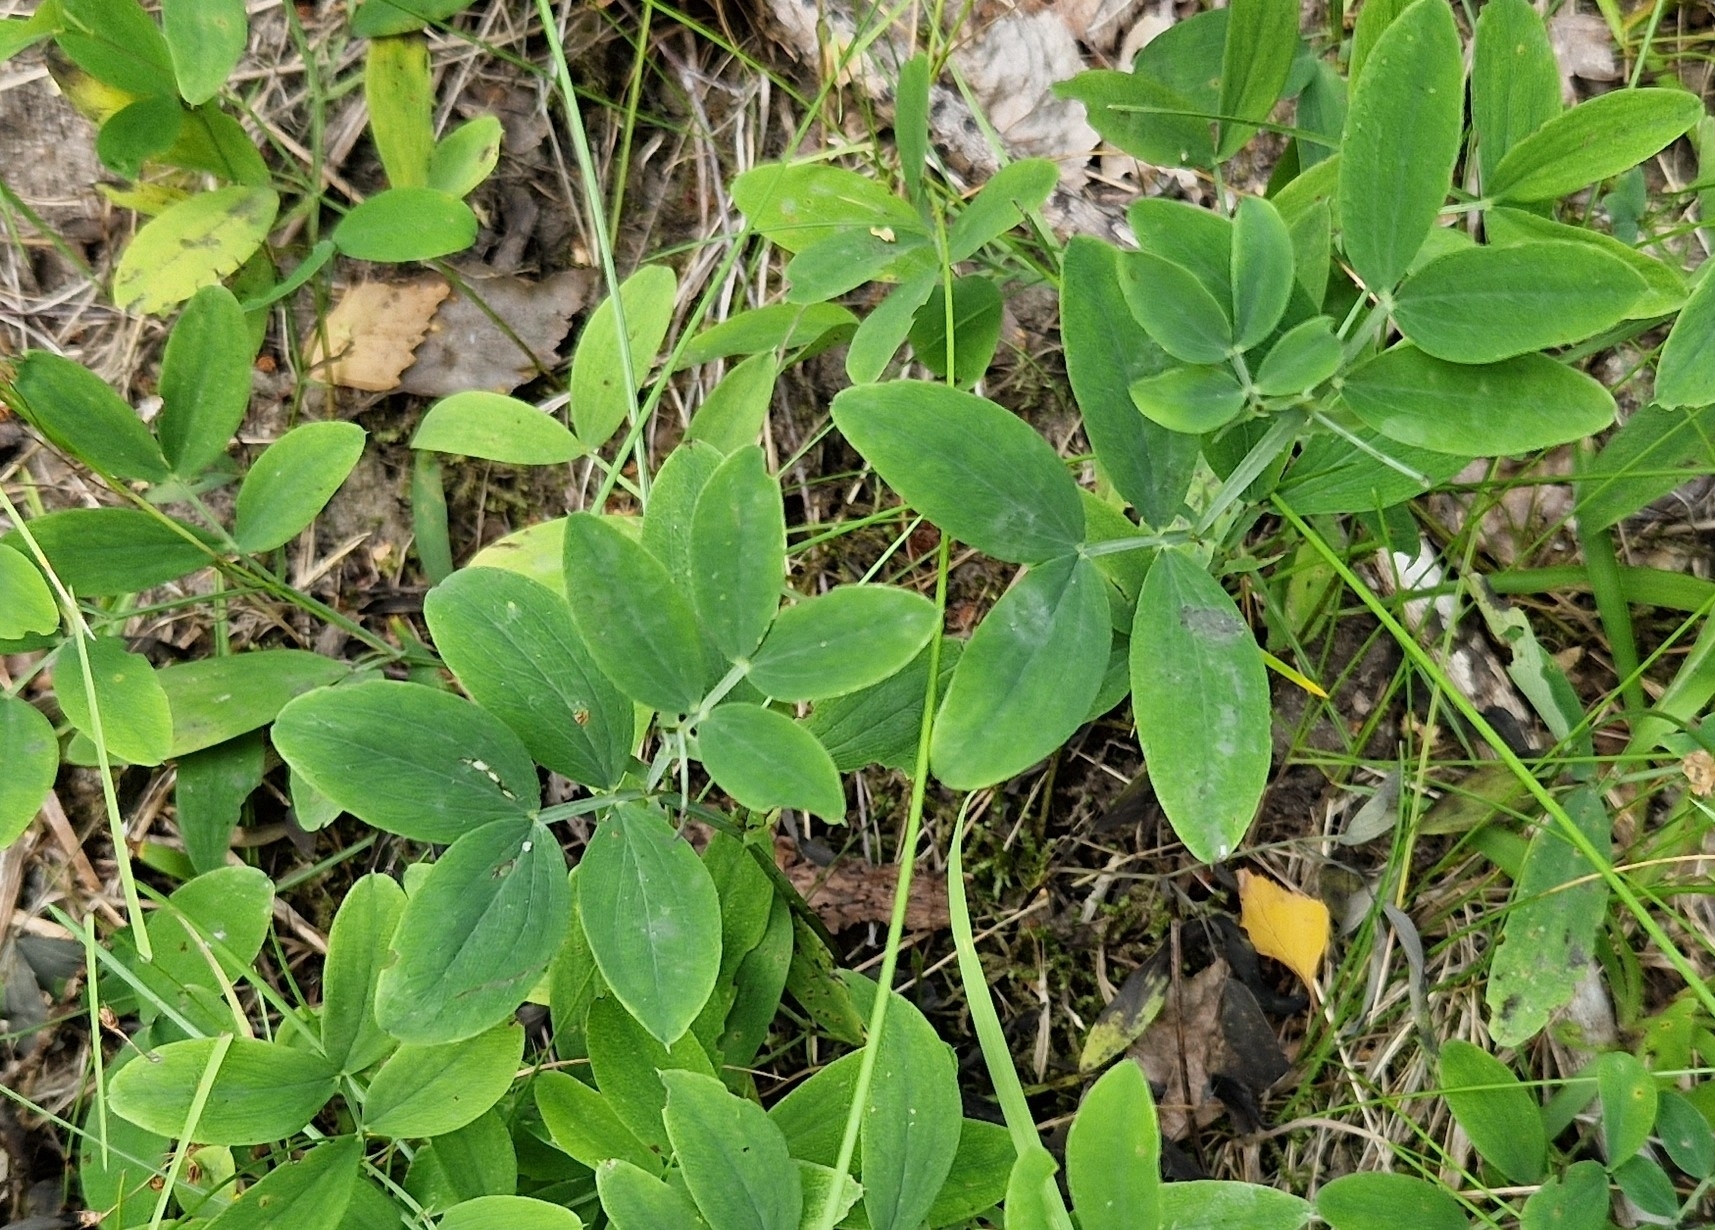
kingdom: Plantae
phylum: Tracheophyta
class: Magnoliopsida
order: Fabales
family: Fabaceae
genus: Lathyrus
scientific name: Lathyrus linifolius
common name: Bitter-vetch
